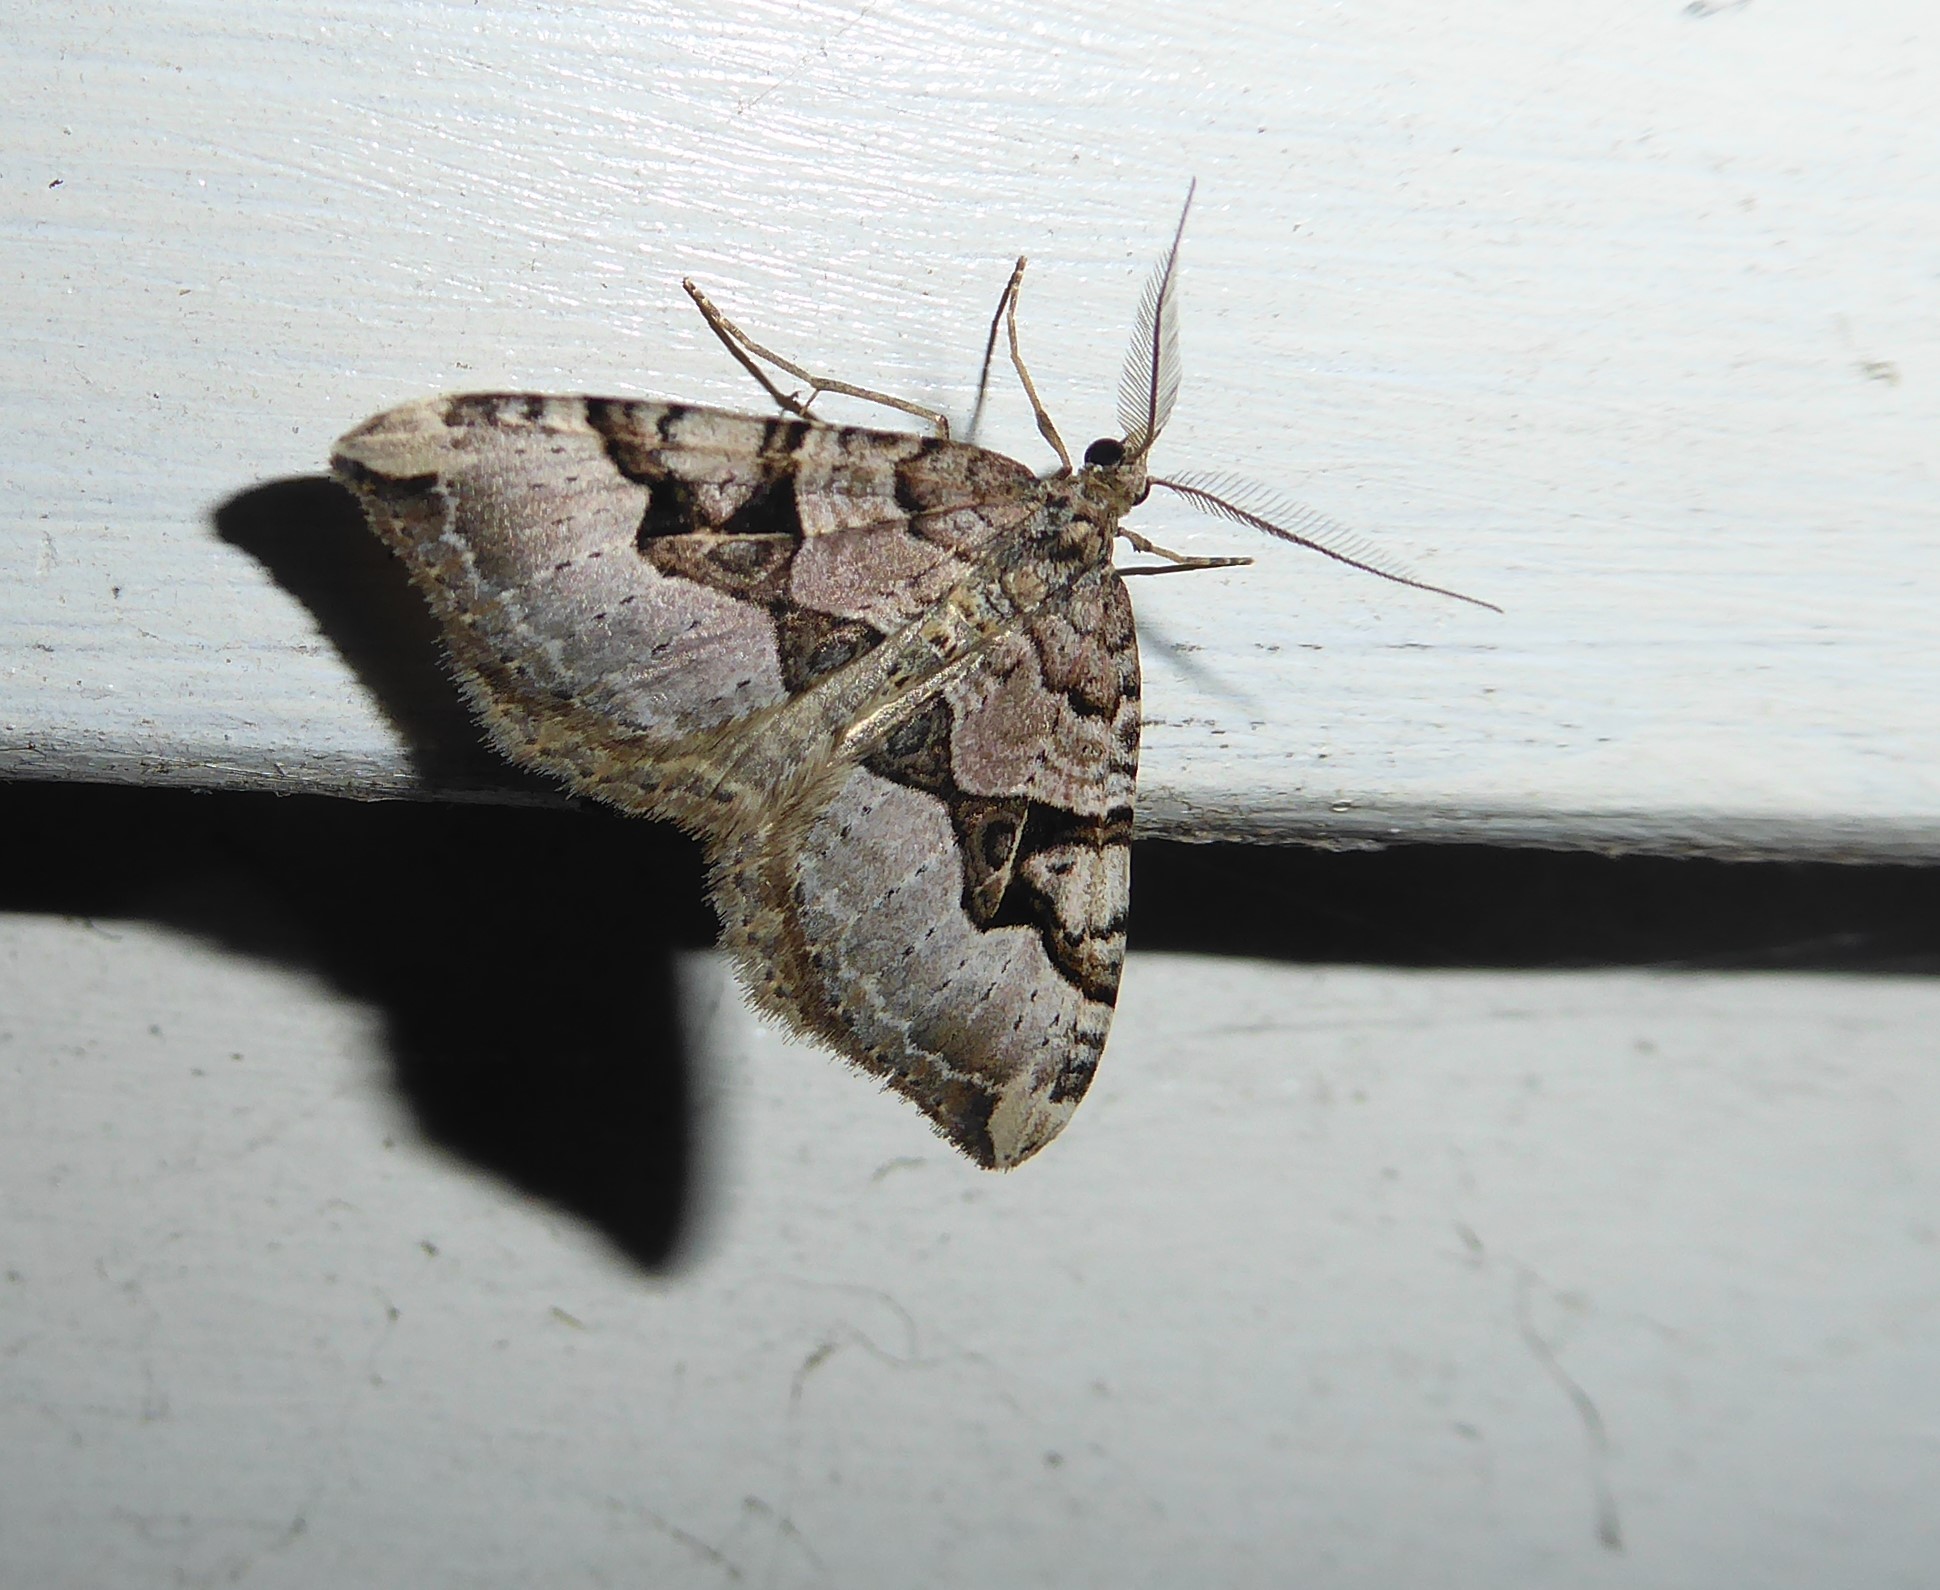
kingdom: Animalia
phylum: Arthropoda
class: Insecta
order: Lepidoptera
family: Geometridae
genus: Xanthorhoe
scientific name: Xanthorhoe semifissata
